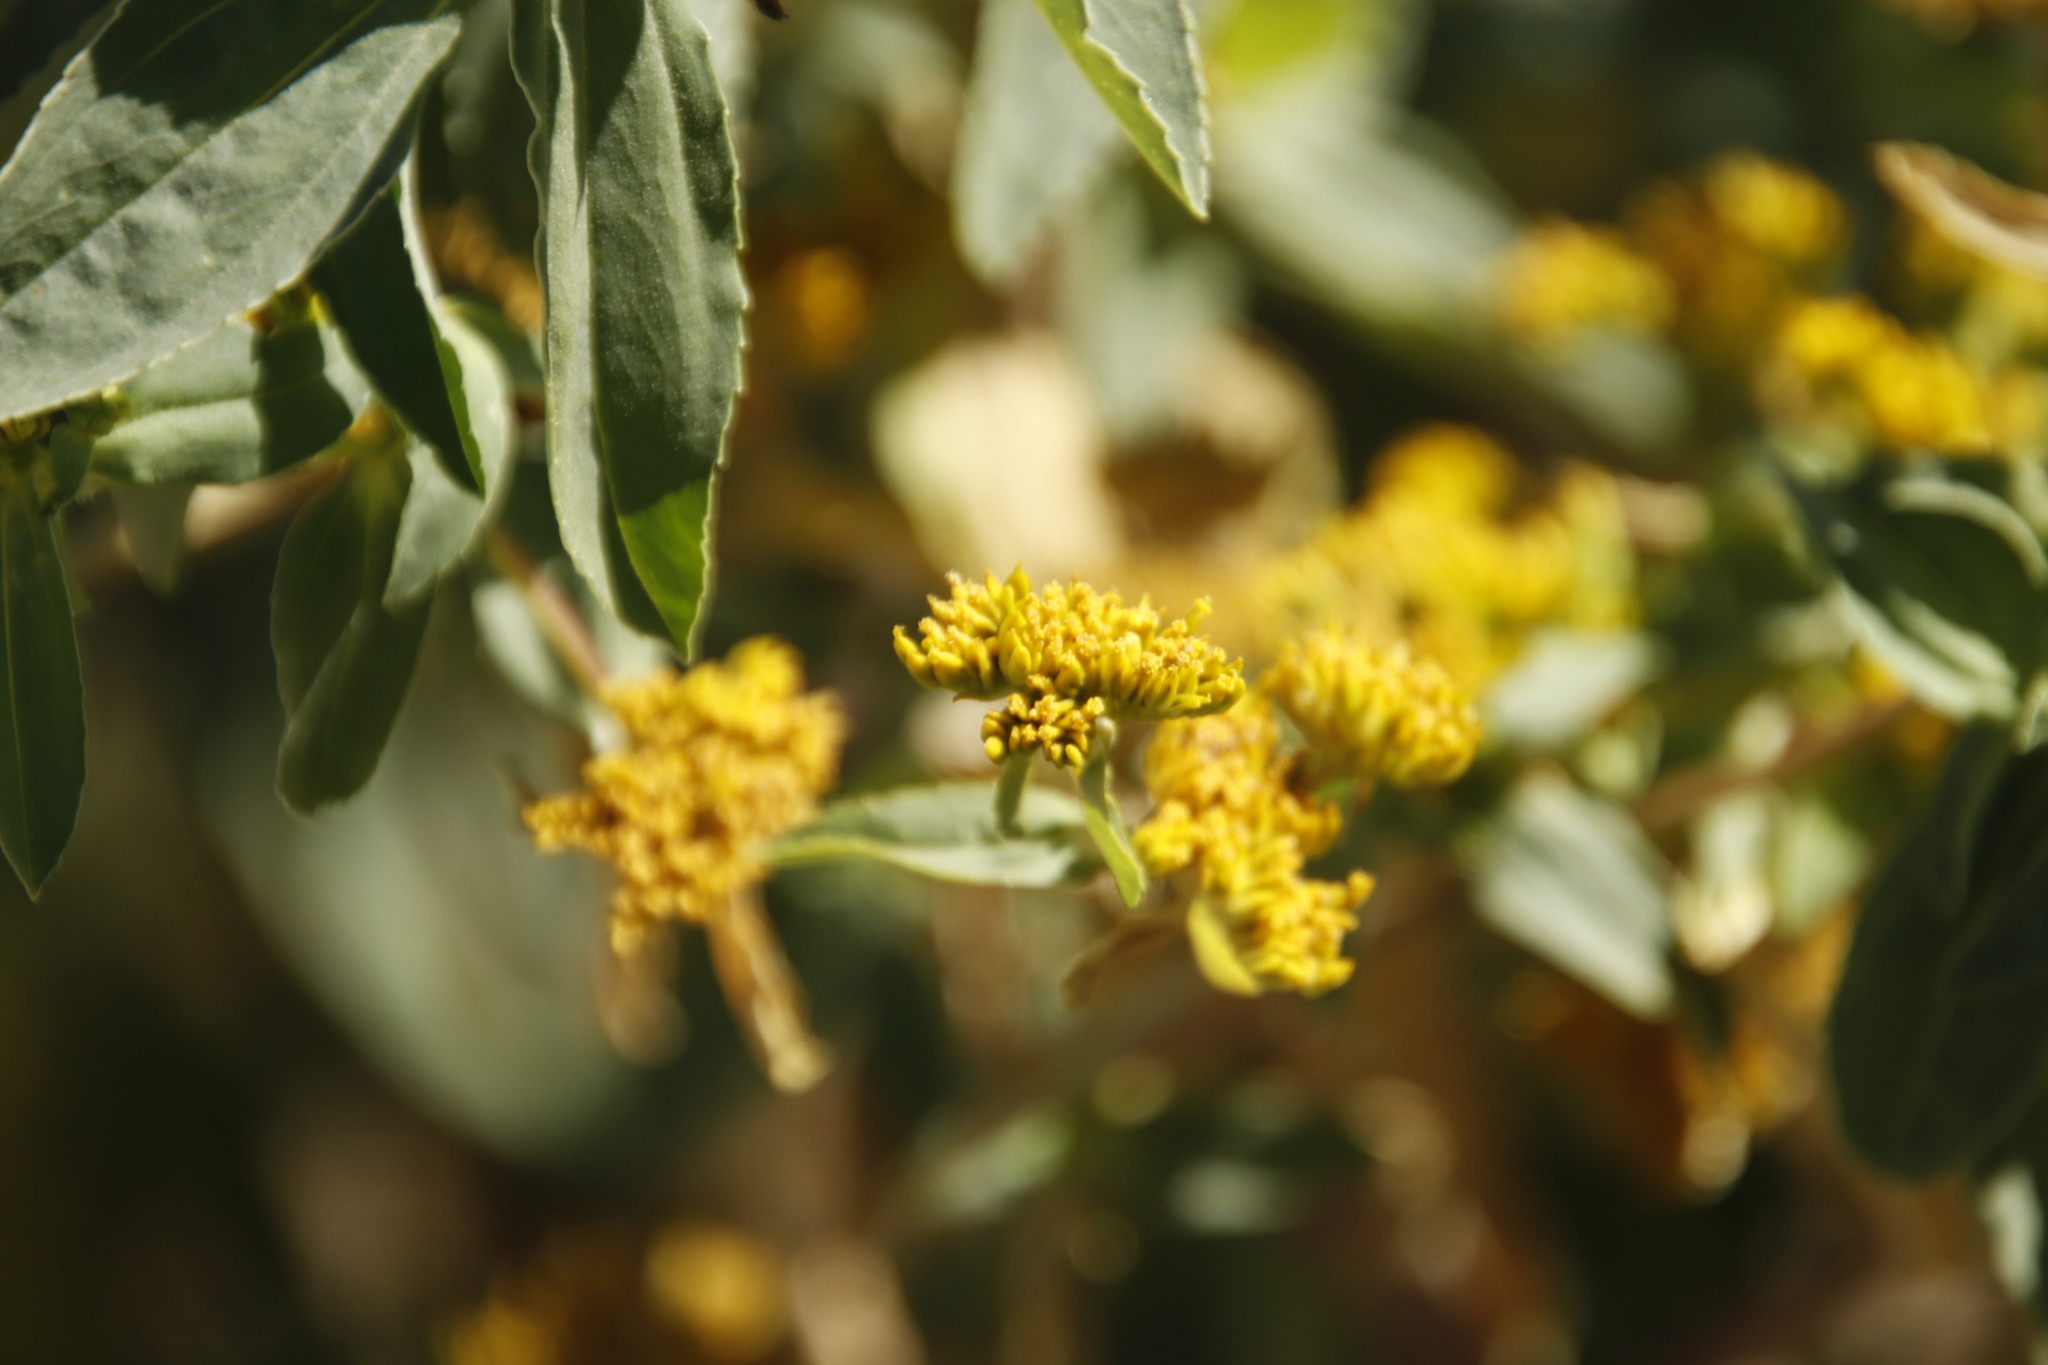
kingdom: Plantae
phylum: Tracheophyta
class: Magnoliopsida
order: Asterales
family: Asteraceae
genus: Flaveria
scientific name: Flaveria bidentis
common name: Coastal plain yellowtops
